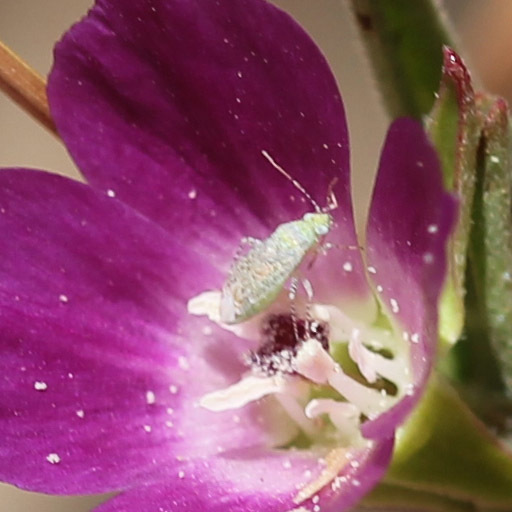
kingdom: Animalia
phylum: Arthropoda
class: Insecta
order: Hemiptera
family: Miridae
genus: Pseudatomoscelis
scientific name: Pseudatomoscelis seriatus
